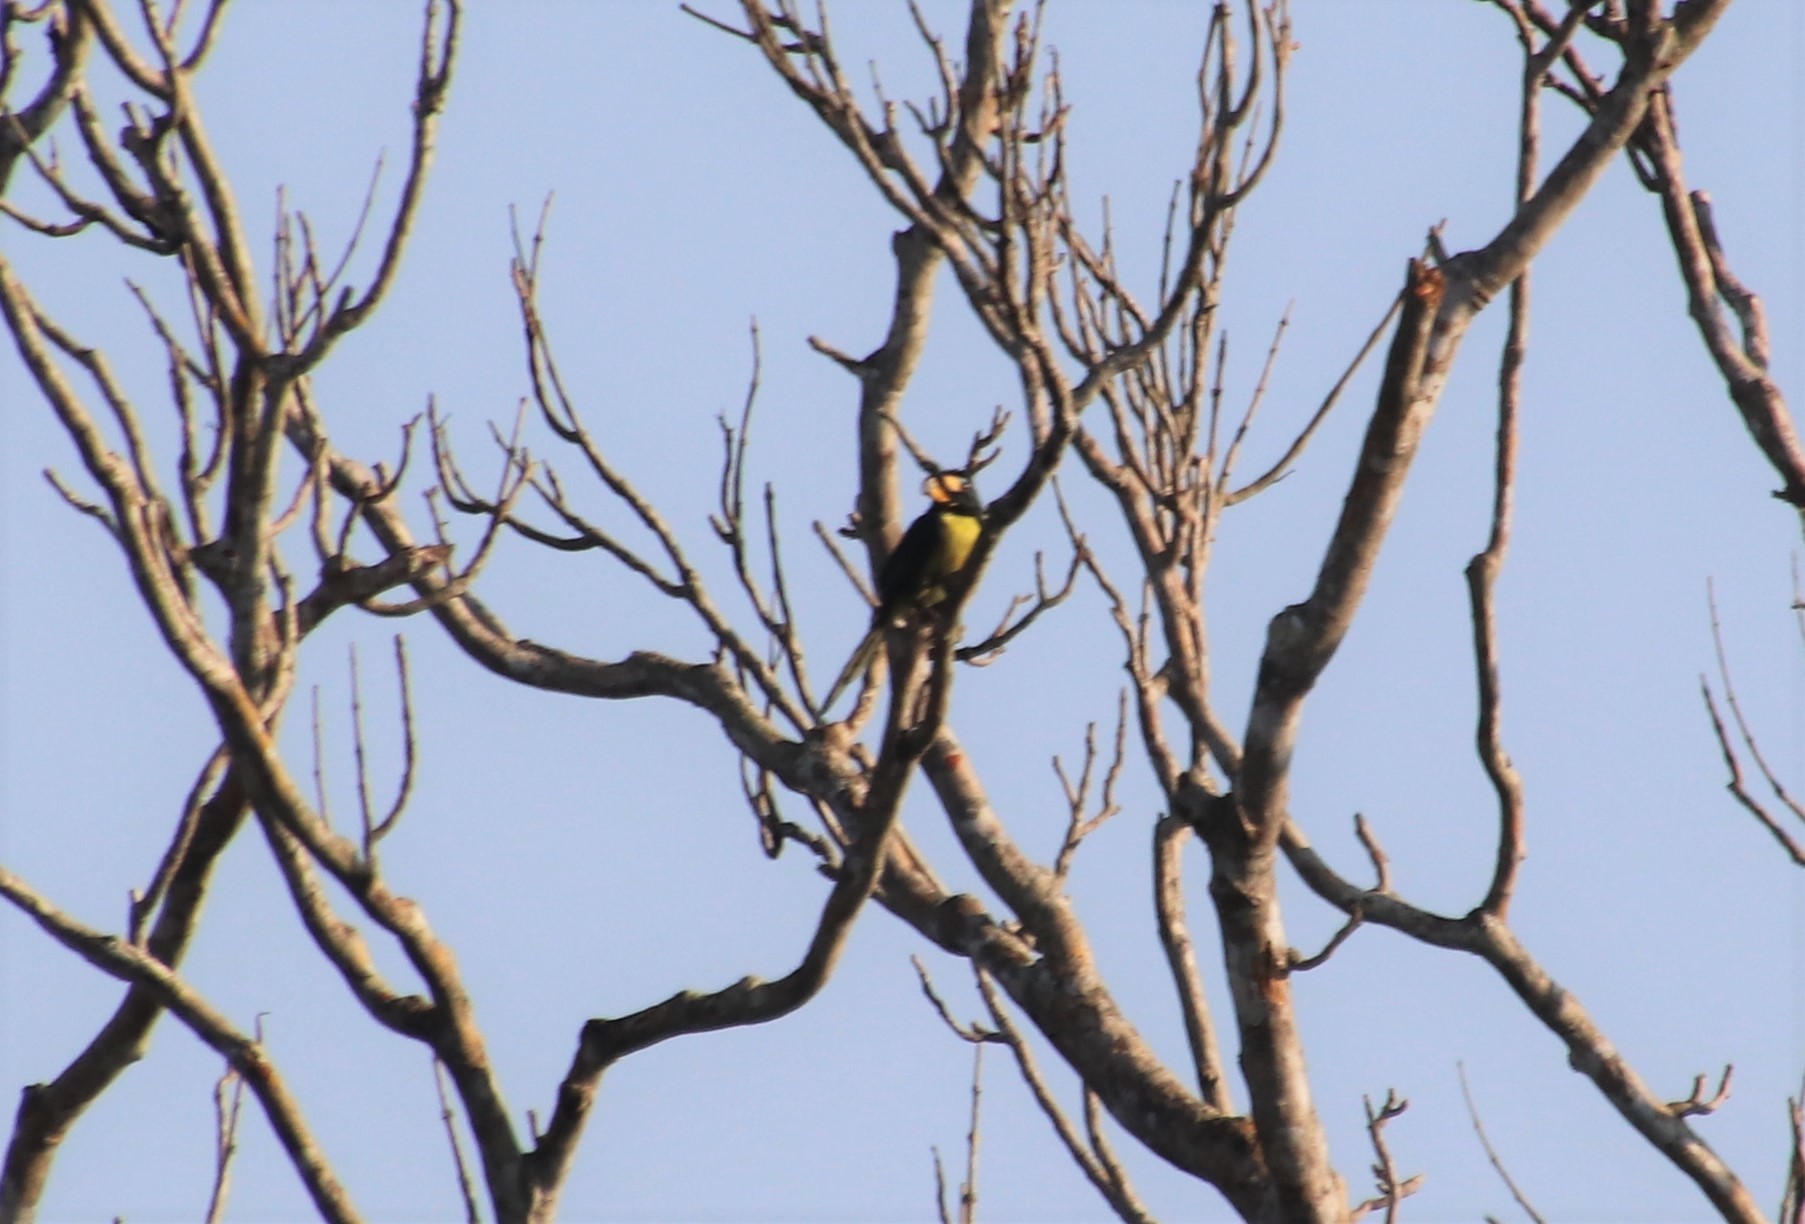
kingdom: Animalia
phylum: Chordata
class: Aves
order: Piciformes
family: Ramphastidae
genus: Pteroglossus
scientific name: Pteroglossus inscriptus
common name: Lettered aracari
